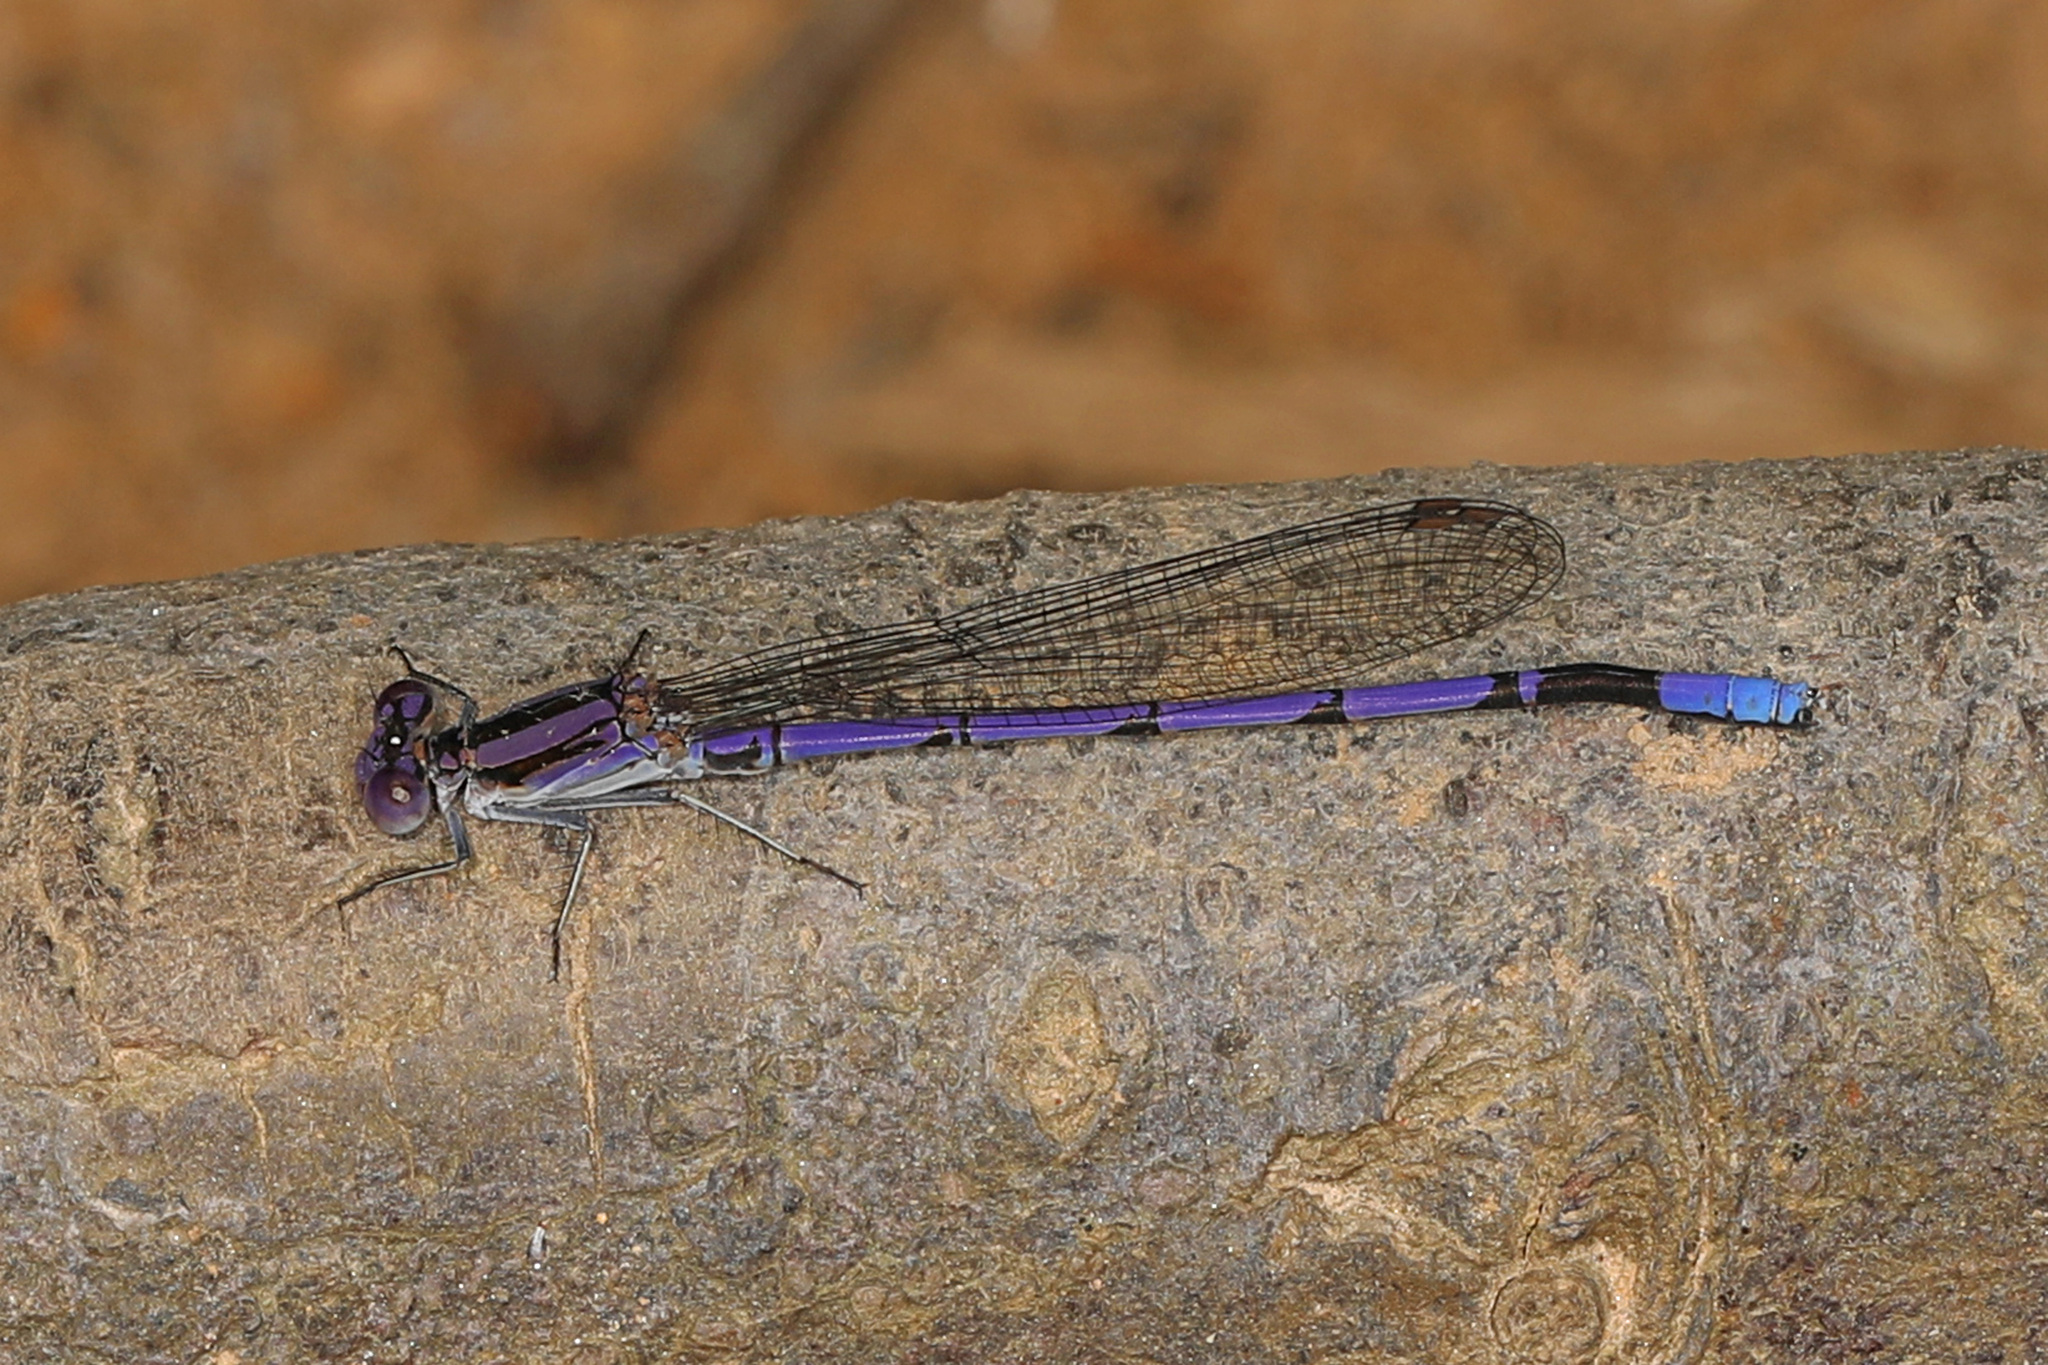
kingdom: Animalia
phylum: Arthropoda
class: Insecta
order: Odonata
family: Coenagrionidae
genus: Argia
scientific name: Argia fumipennis
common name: Variable dancer
